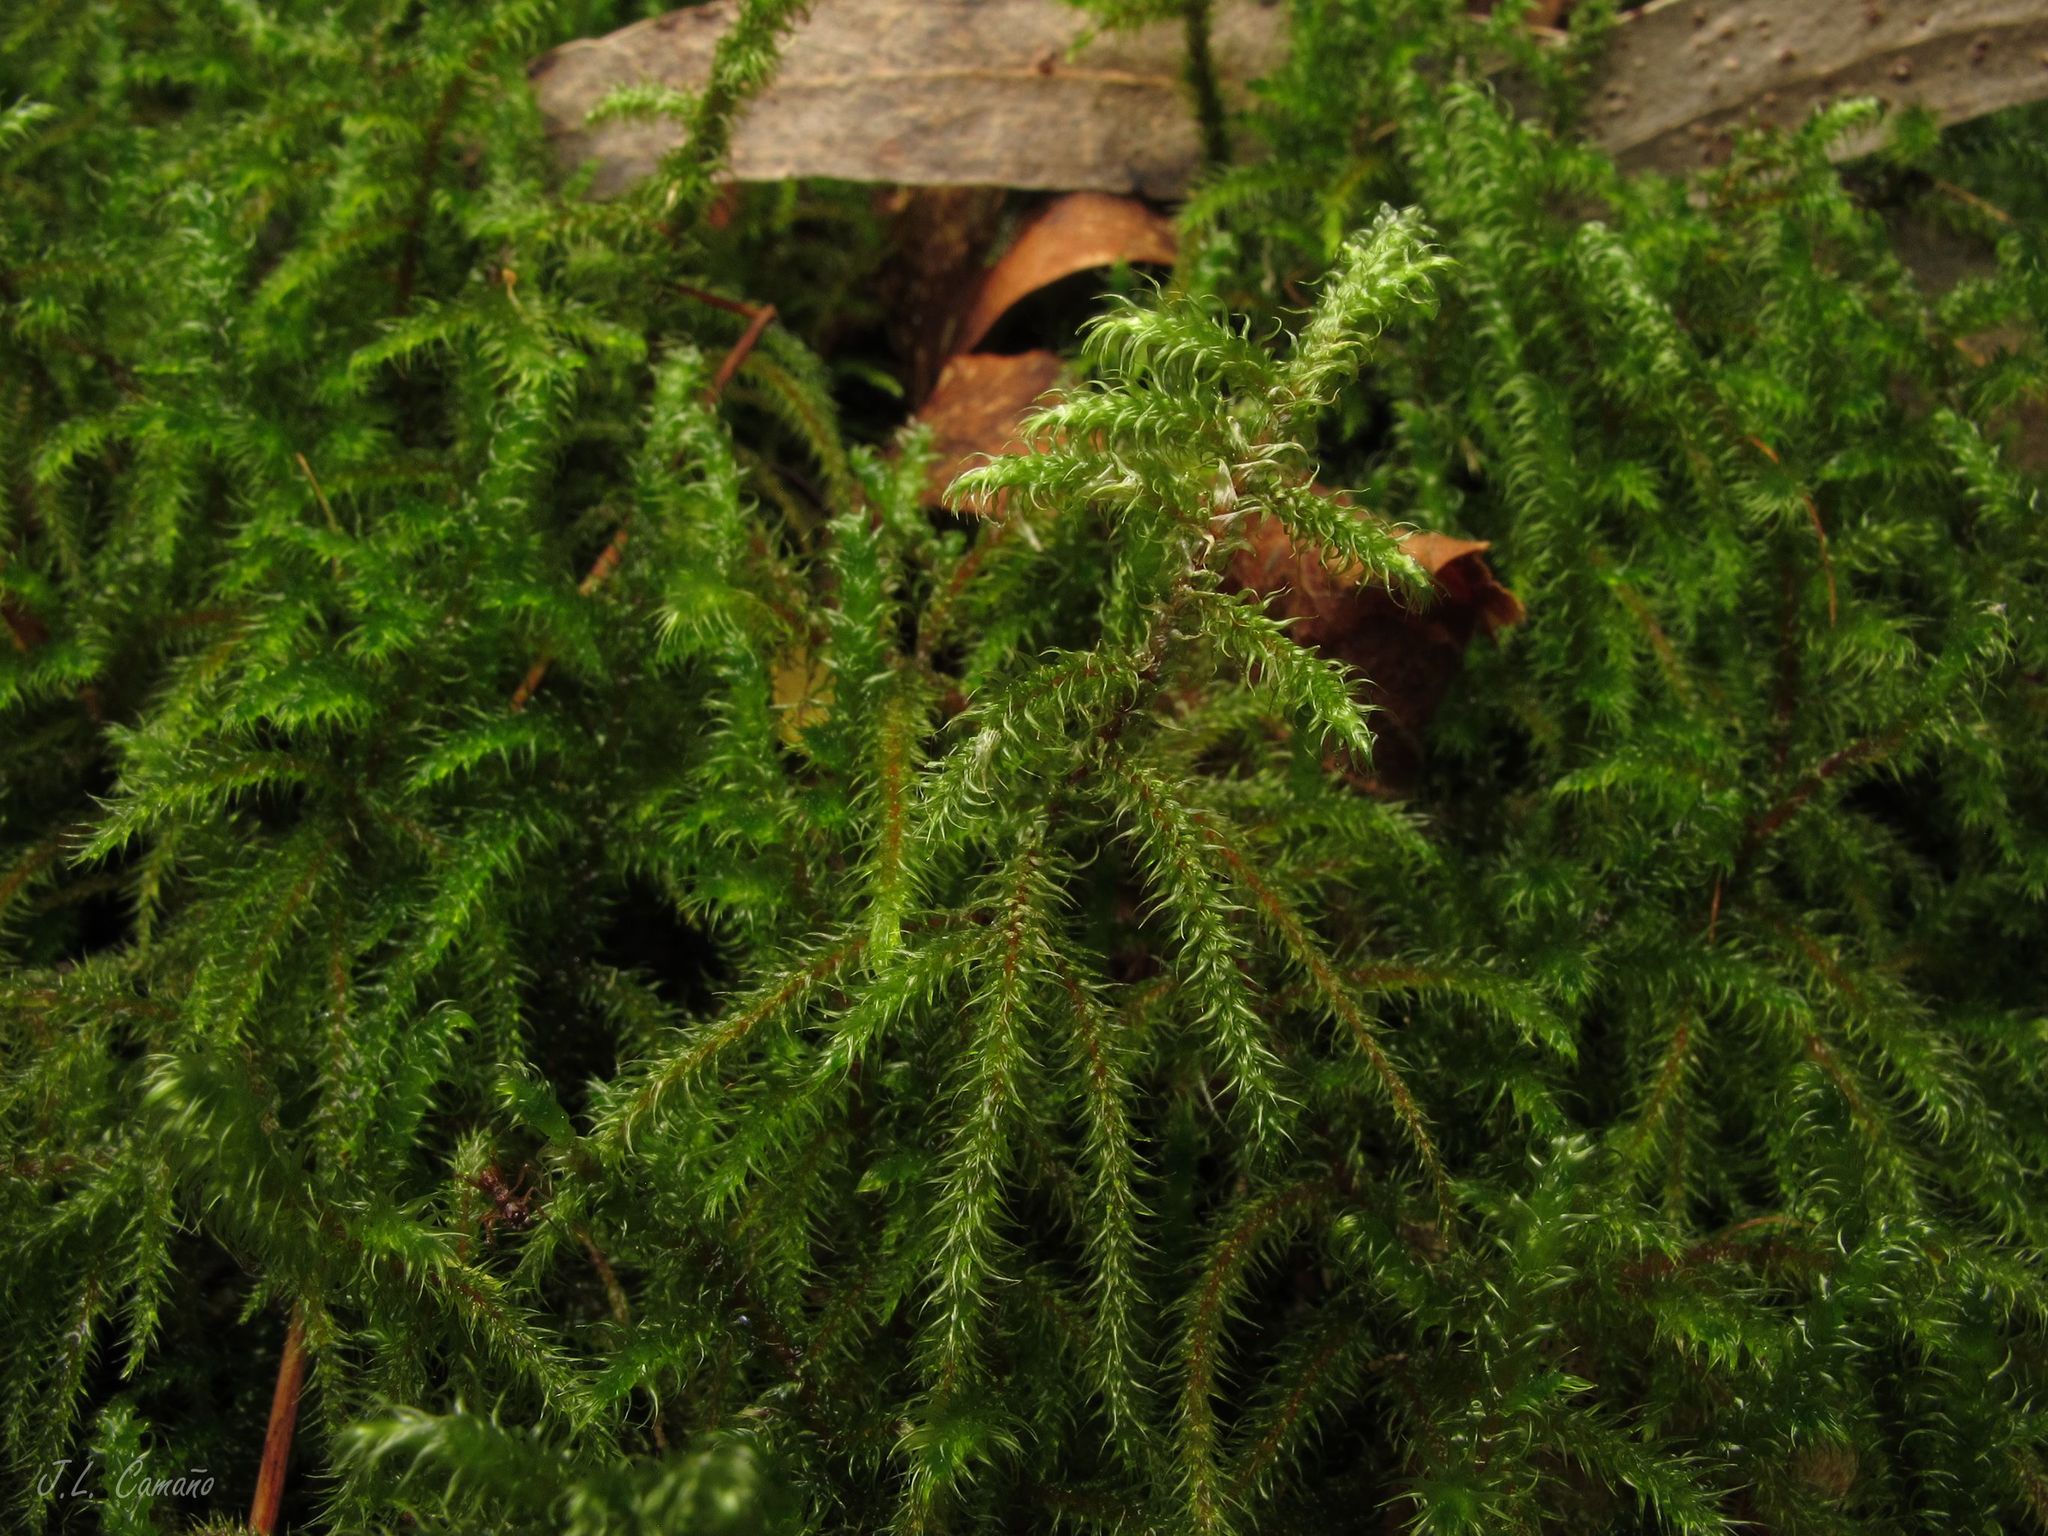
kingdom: Plantae
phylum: Bryophyta
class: Bryopsida
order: Hypnales
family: Hylocomiaceae
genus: Rhytidiadelphus
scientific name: Rhytidiadelphus loreus
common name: Lanky moss
